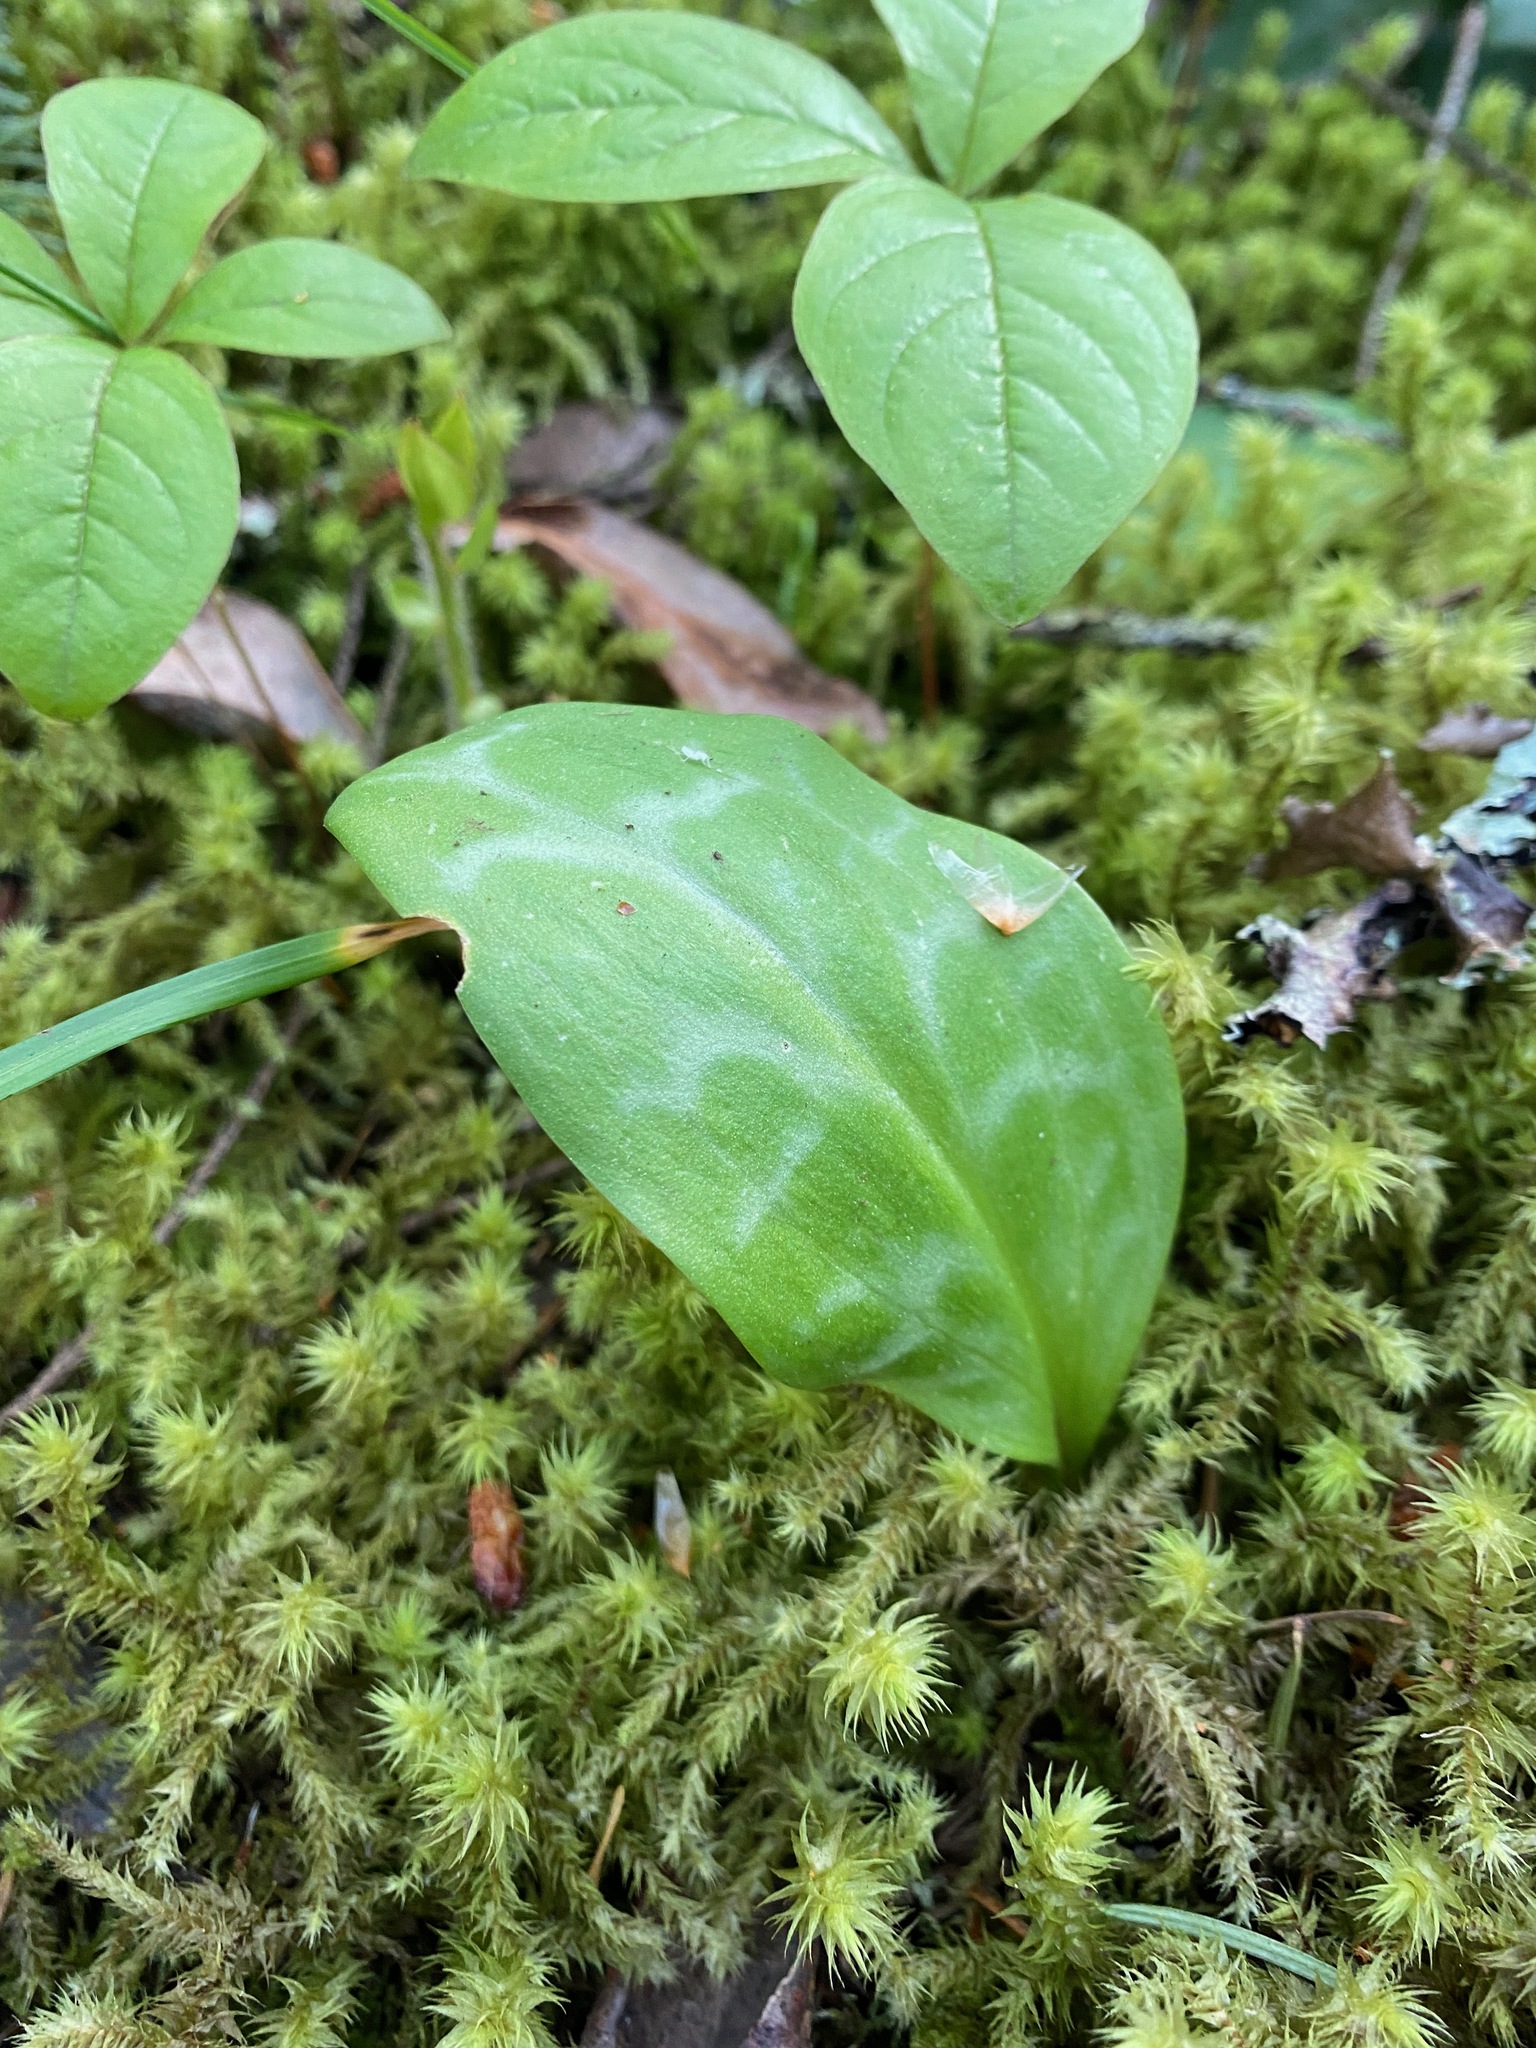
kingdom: Plantae
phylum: Tracheophyta
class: Liliopsida
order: Liliales
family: Liliaceae
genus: Erythronium
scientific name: Erythronium oregonum
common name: Giant adder's-tongue
